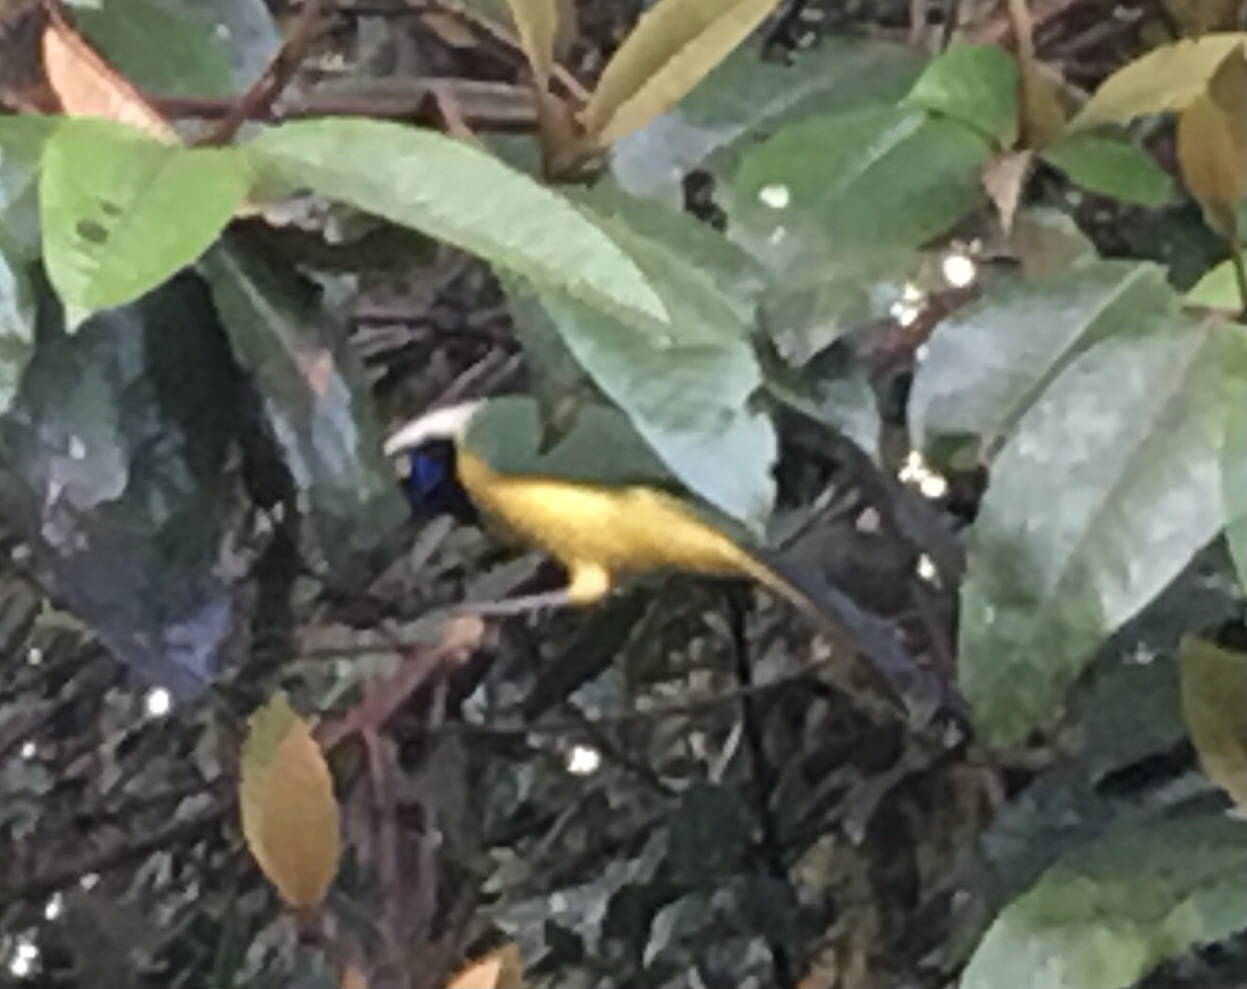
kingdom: Animalia
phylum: Chordata
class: Aves
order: Passeriformes
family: Corvidae
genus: Cyanocorax
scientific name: Cyanocorax yncas
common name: Green jay
